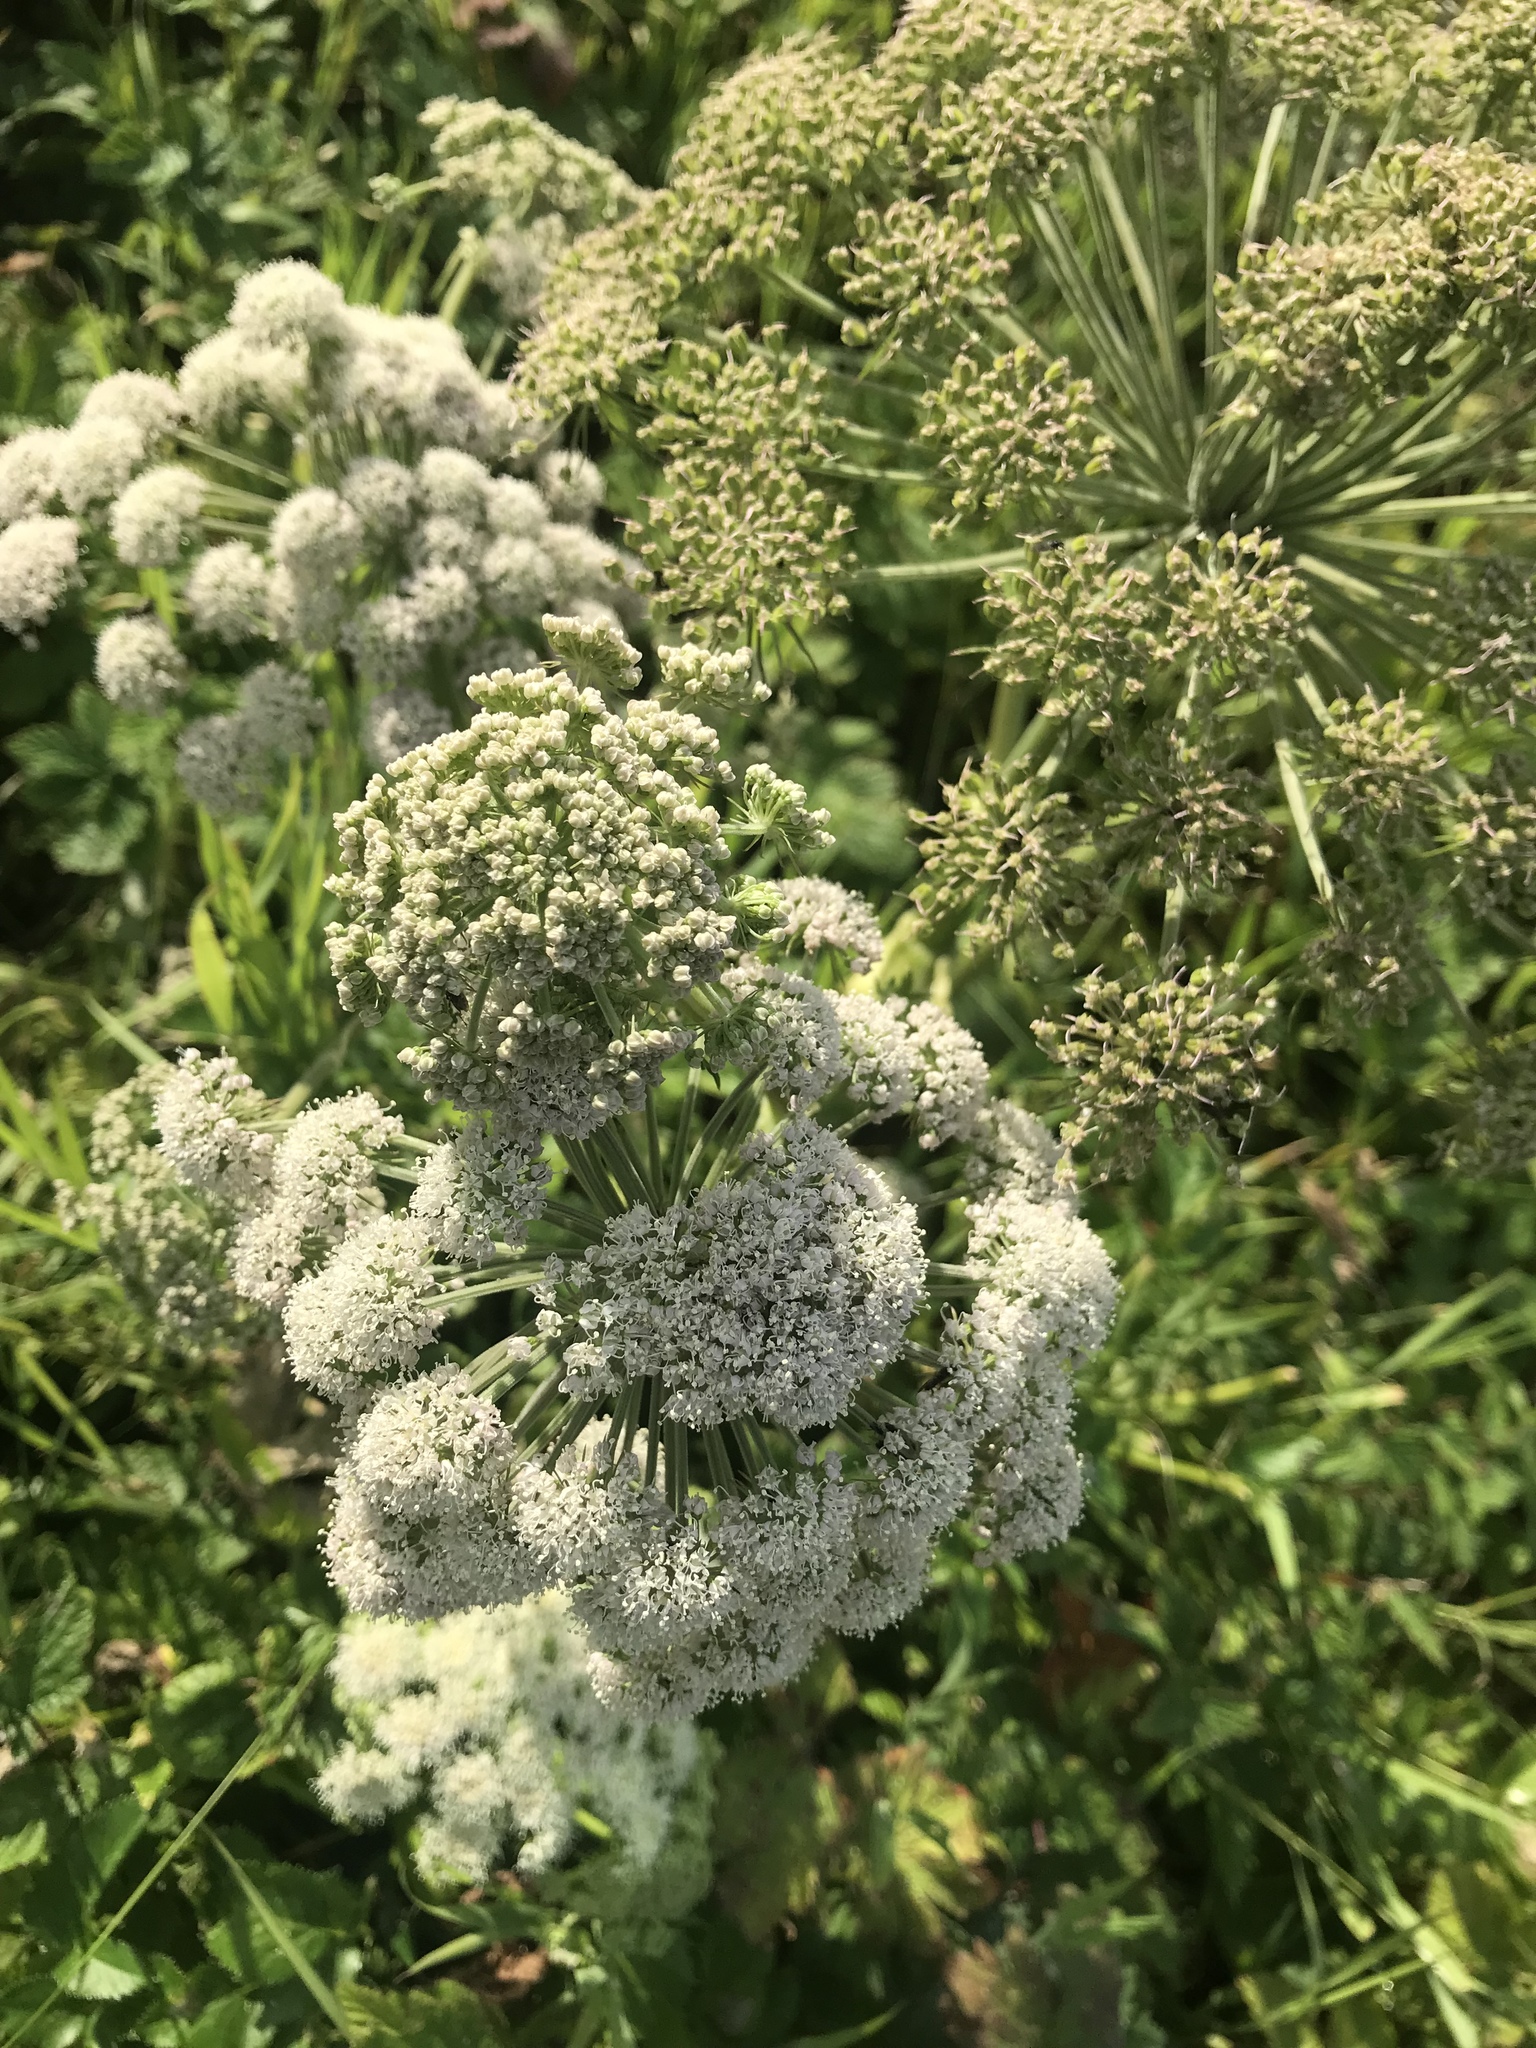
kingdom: Plantae
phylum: Tracheophyta
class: Magnoliopsida
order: Apiales
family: Apiaceae
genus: Angelica
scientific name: Angelica sylvestris
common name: Wild angelica
